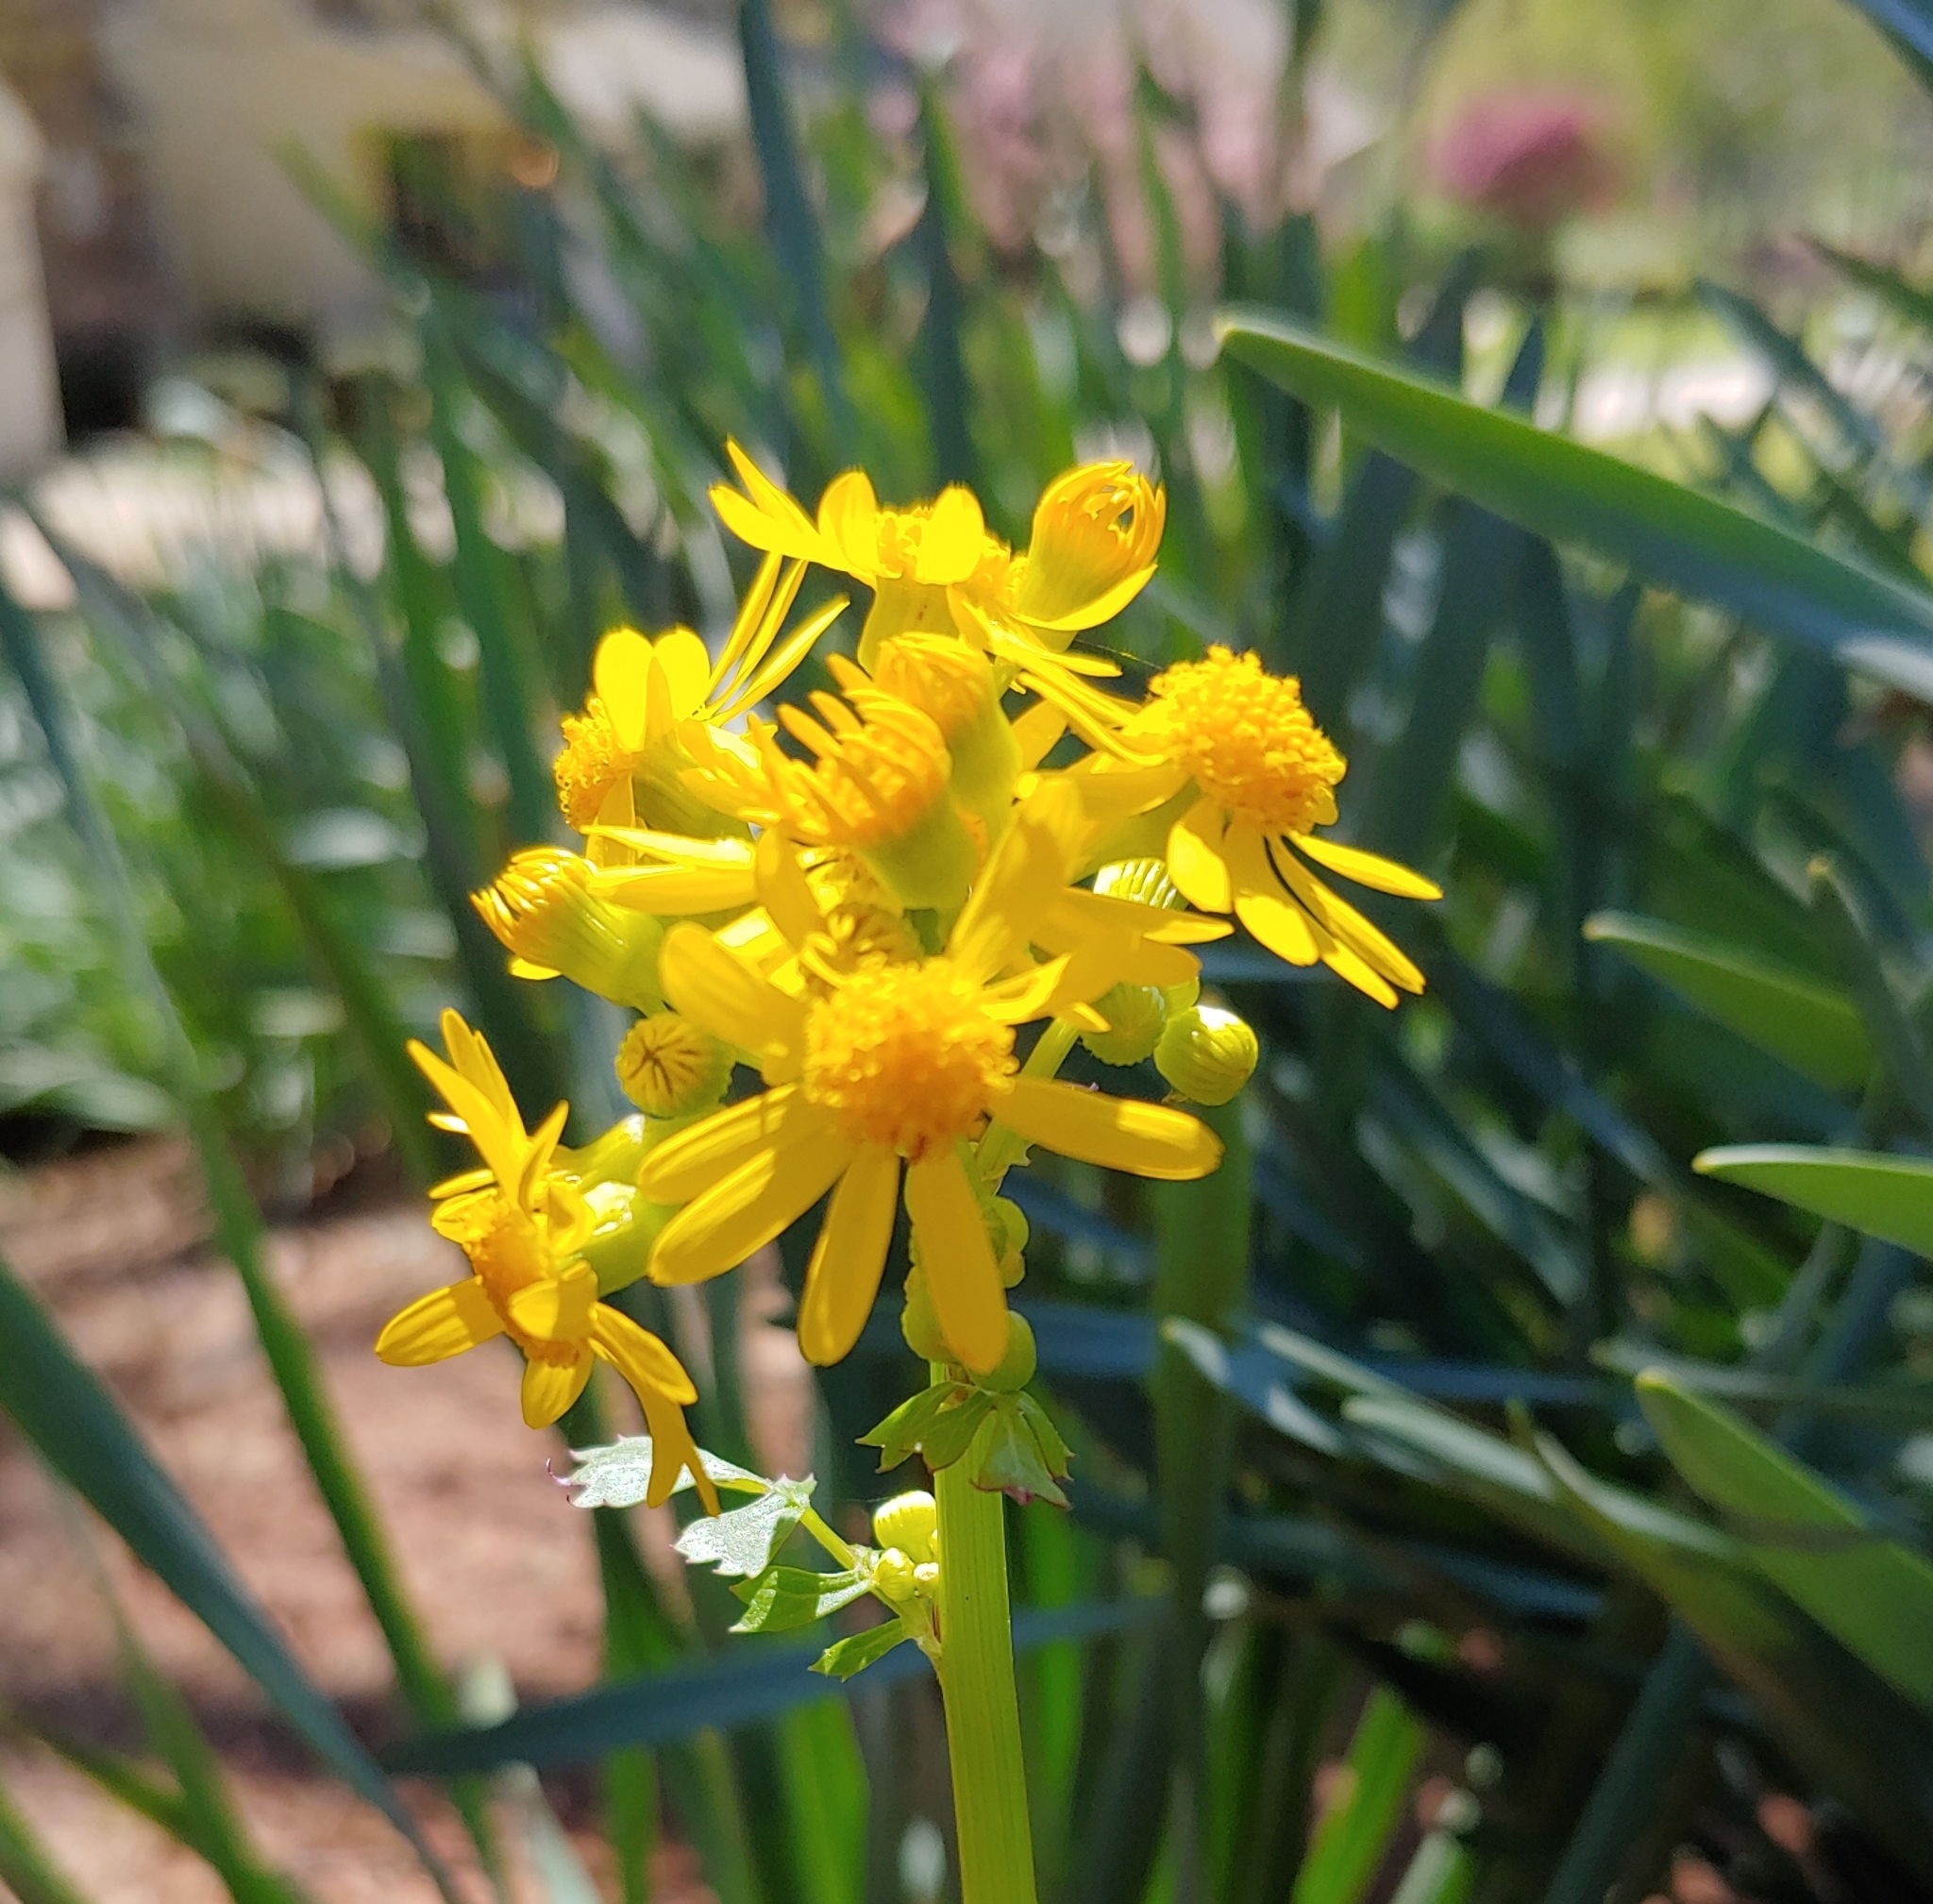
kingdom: Plantae
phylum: Tracheophyta
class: Magnoliopsida
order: Asterales
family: Asteraceae
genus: Packera
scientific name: Packera glabella
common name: Butterweed
